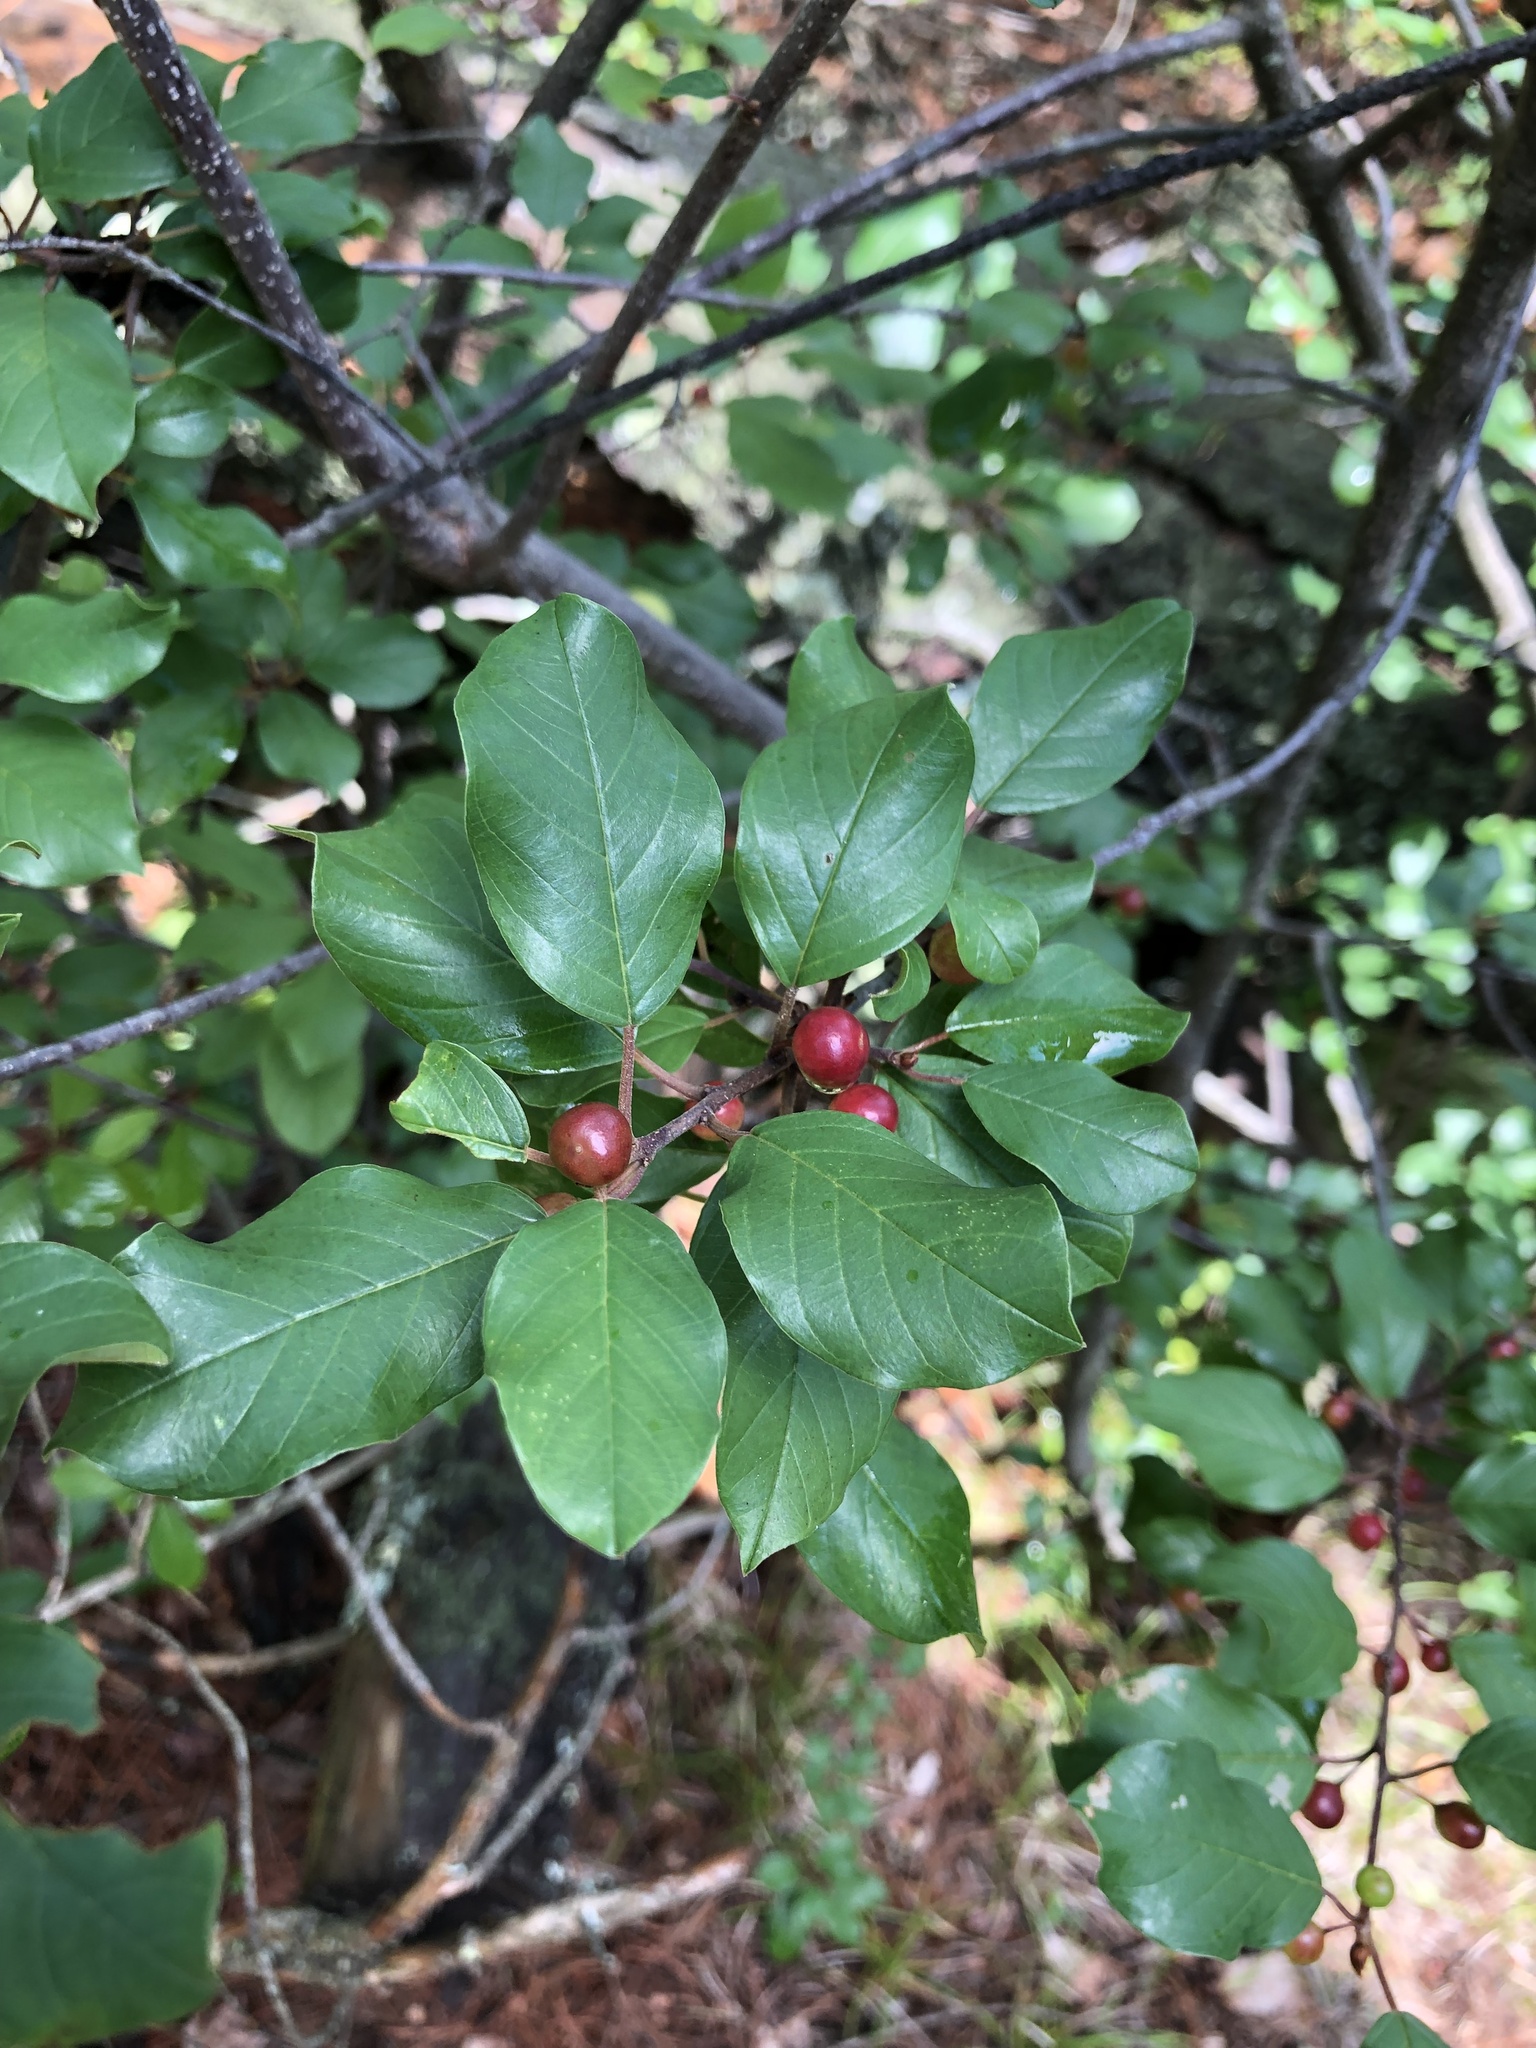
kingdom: Plantae
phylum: Tracheophyta
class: Magnoliopsida
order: Rosales
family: Rhamnaceae
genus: Frangula
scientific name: Frangula alnus
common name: Alder buckthorn
